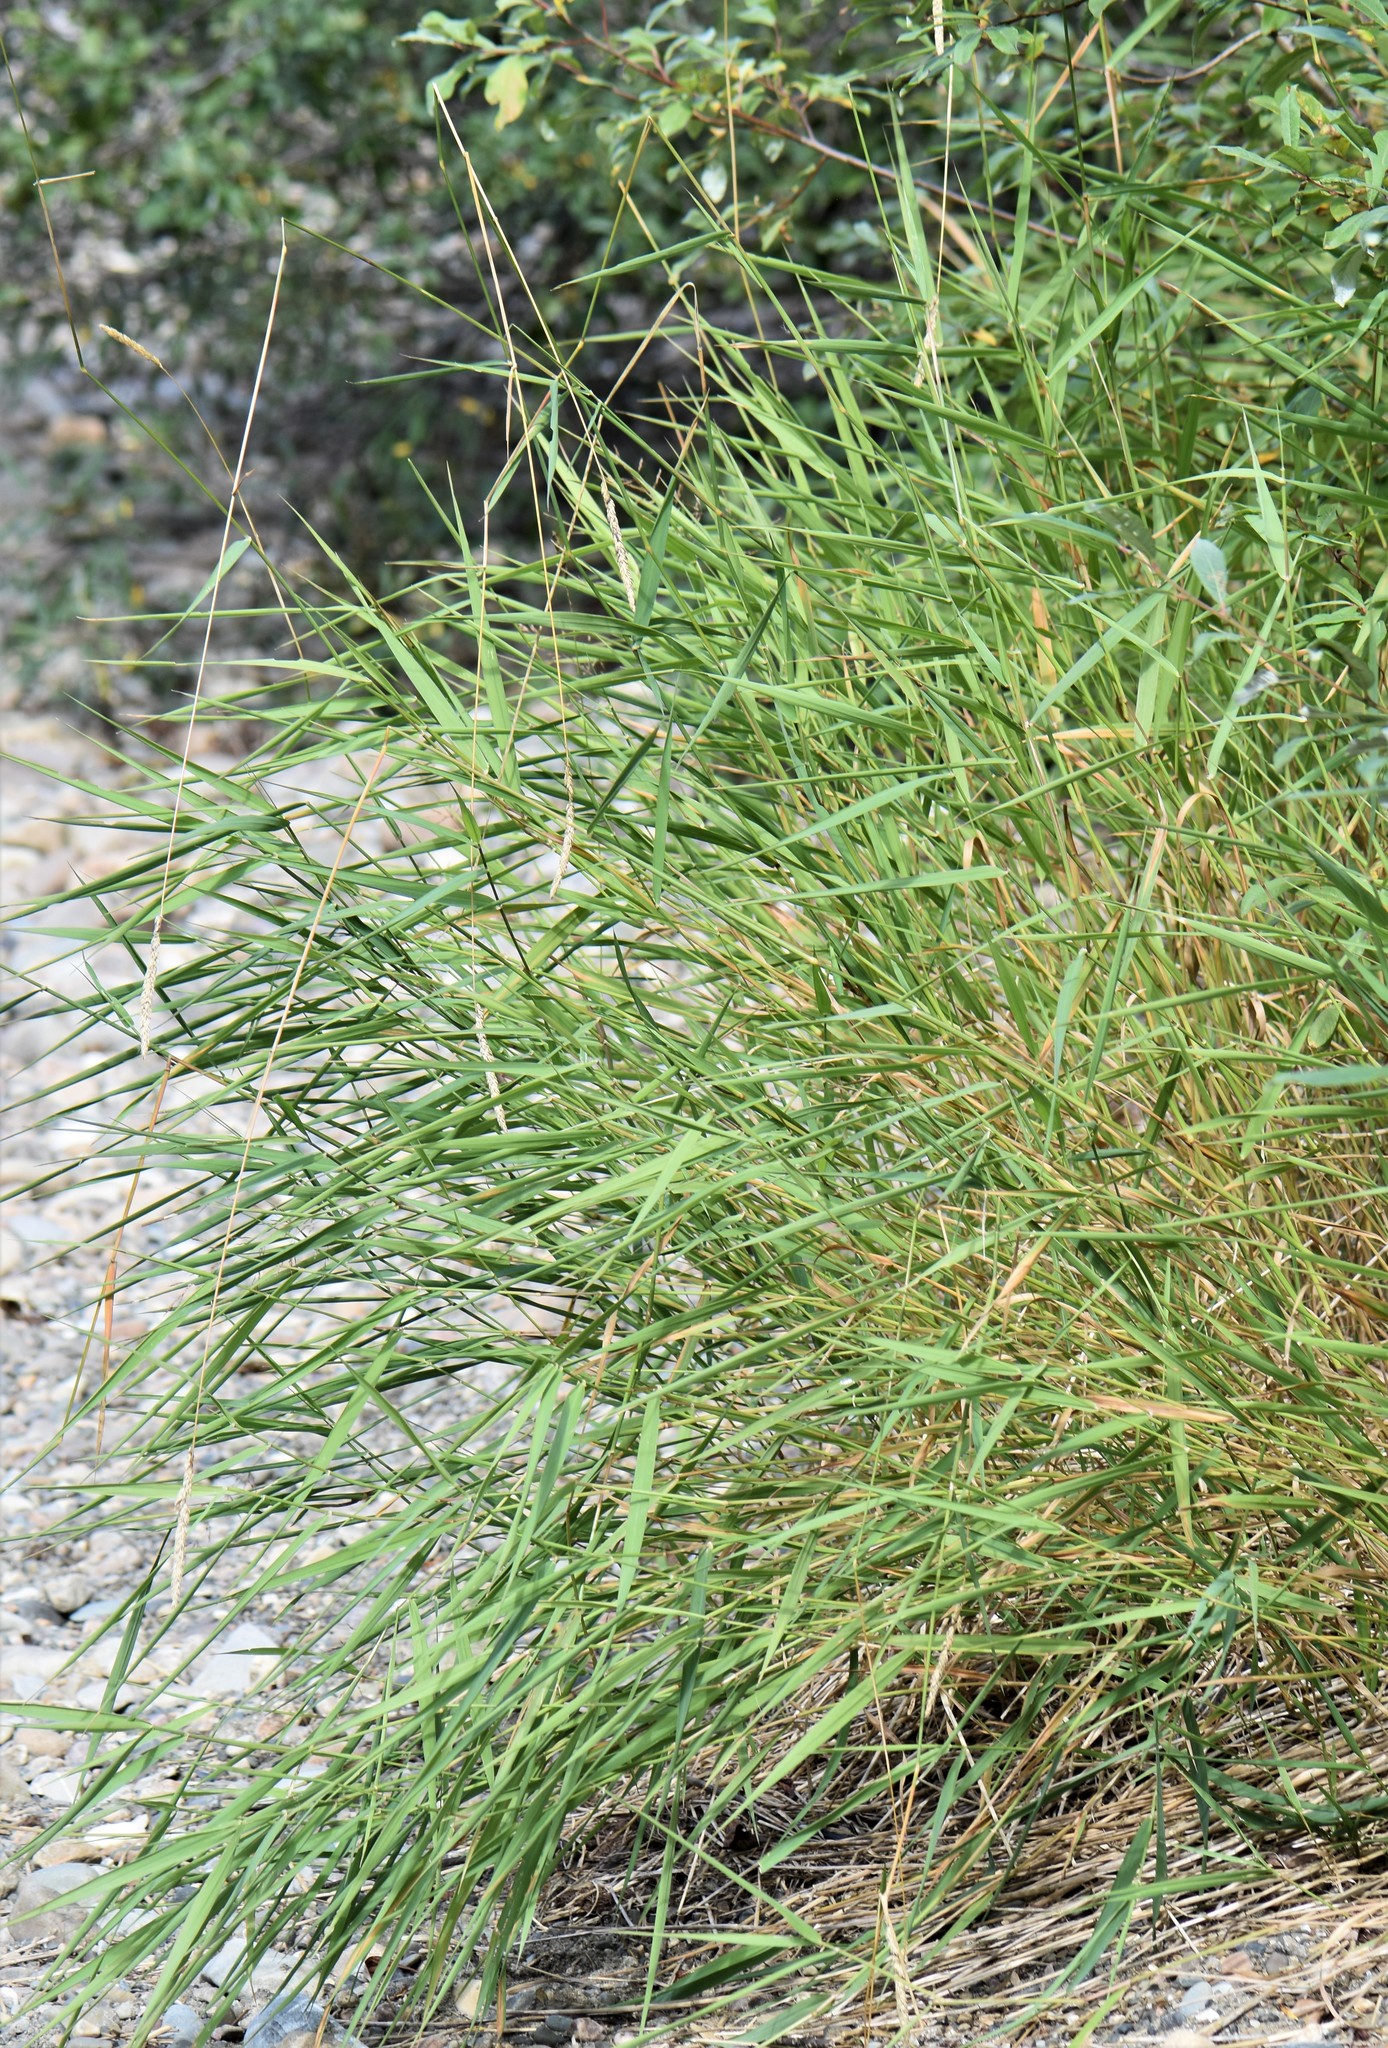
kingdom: Plantae
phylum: Tracheophyta
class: Liliopsida
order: Poales
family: Poaceae
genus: Phalaris
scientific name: Phalaris arundinacea
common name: Reed canary-grass
